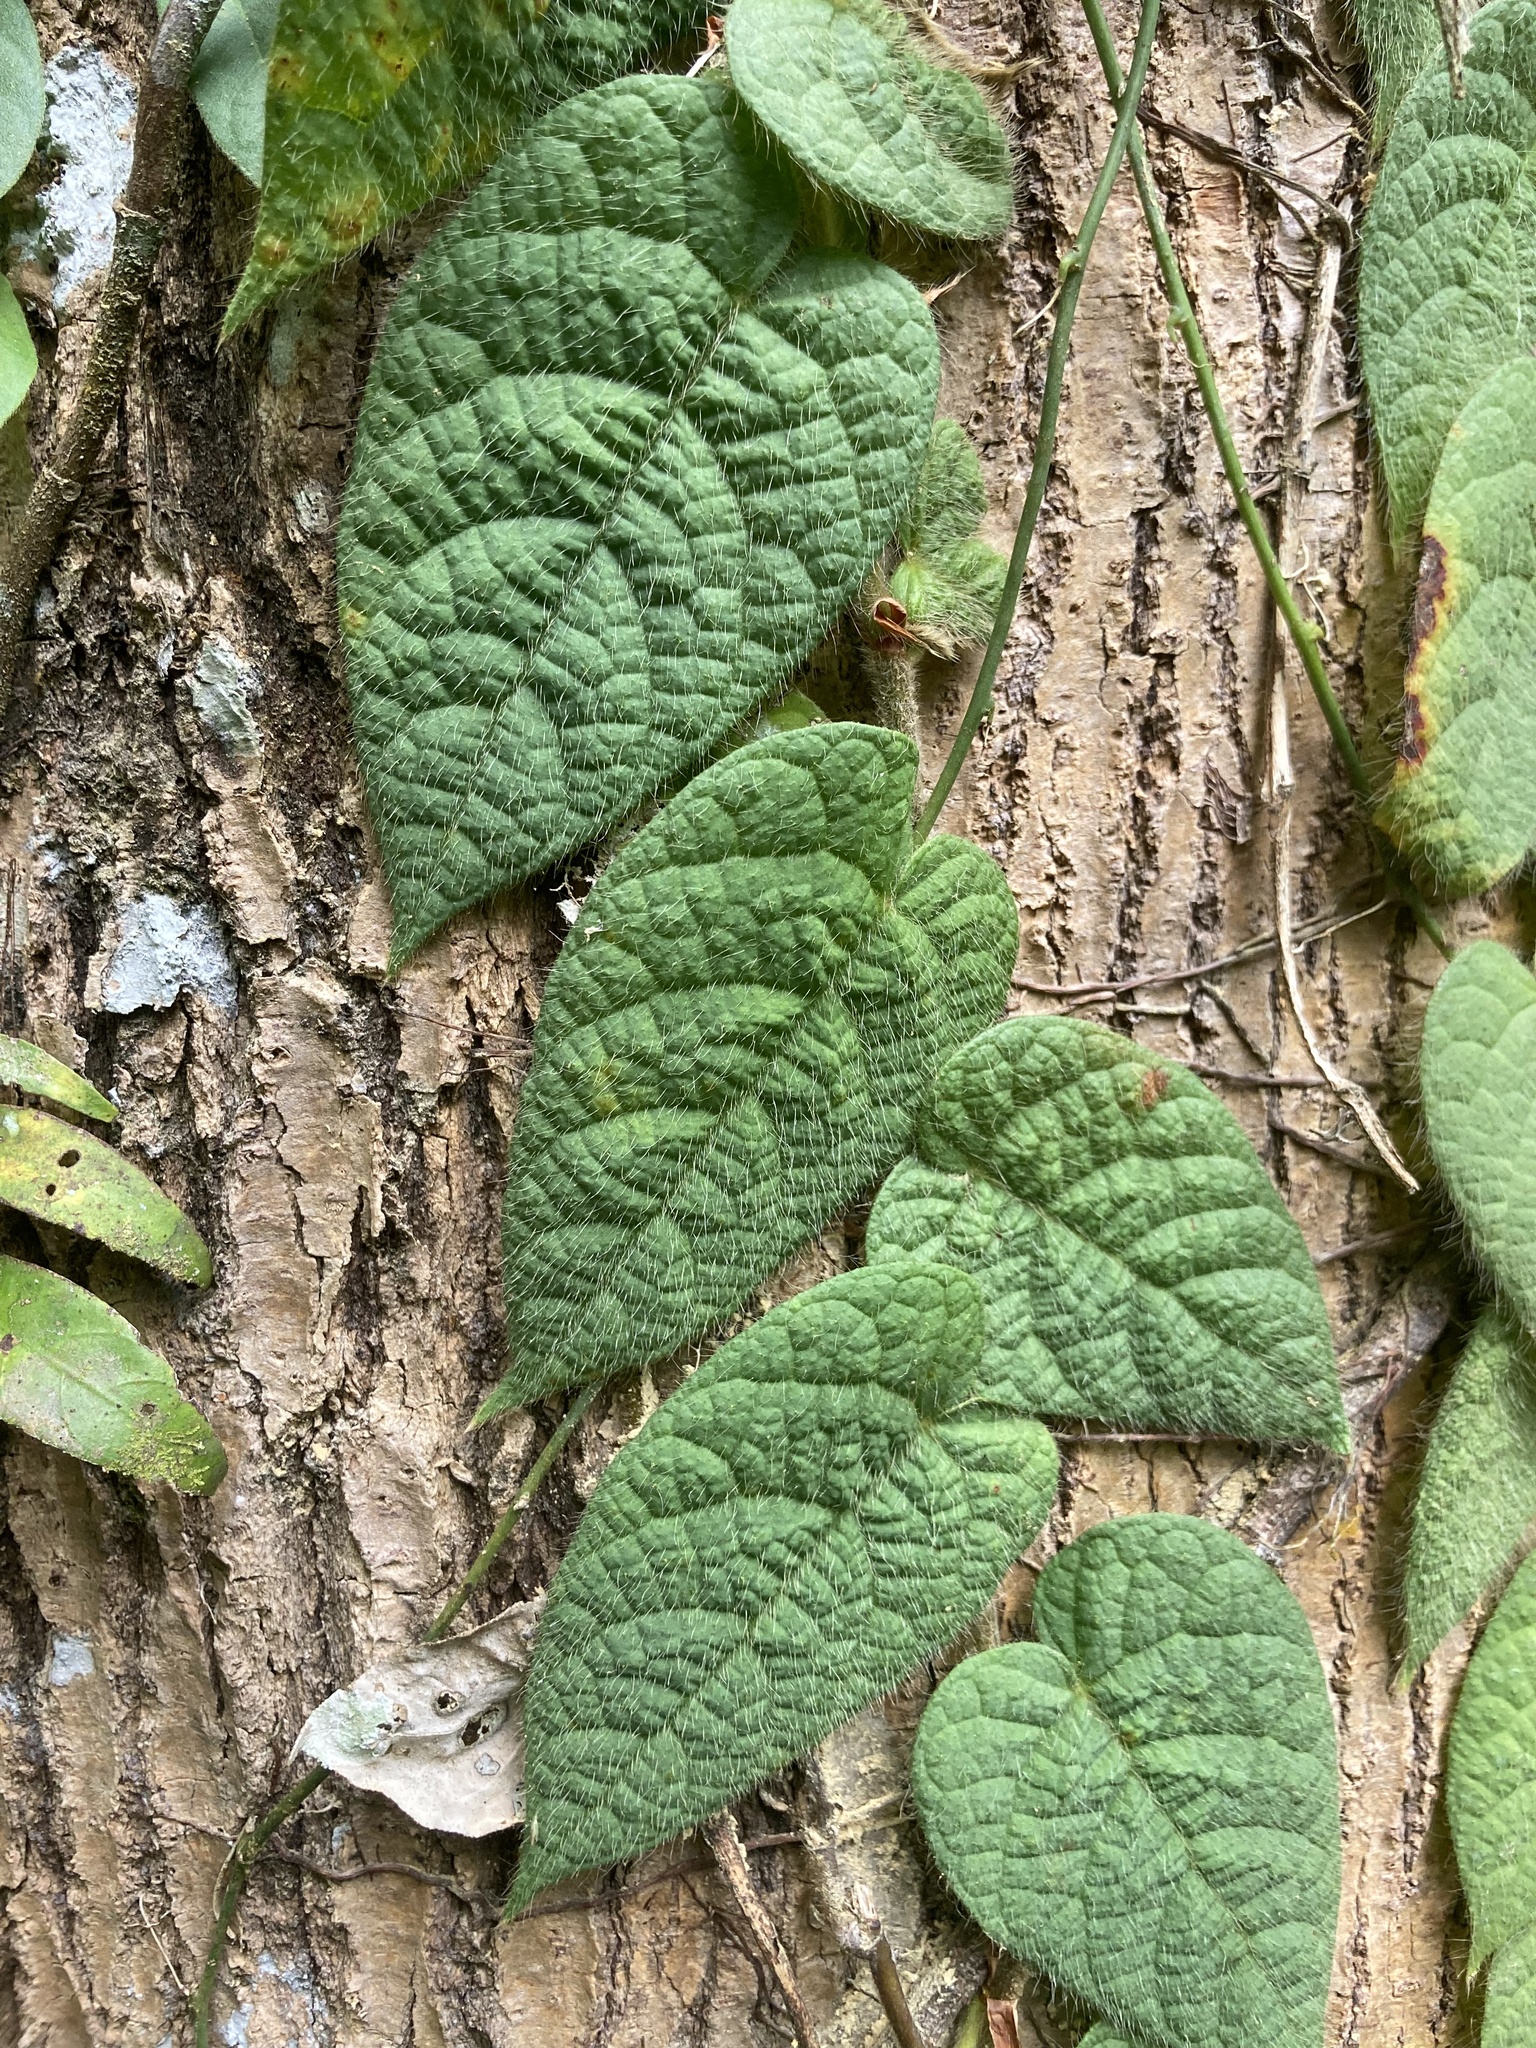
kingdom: Plantae
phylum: Tracheophyta
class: Magnoliopsida
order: Rosales
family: Moraceae
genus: Ficus
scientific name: Ficus villosa
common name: Villous fig
